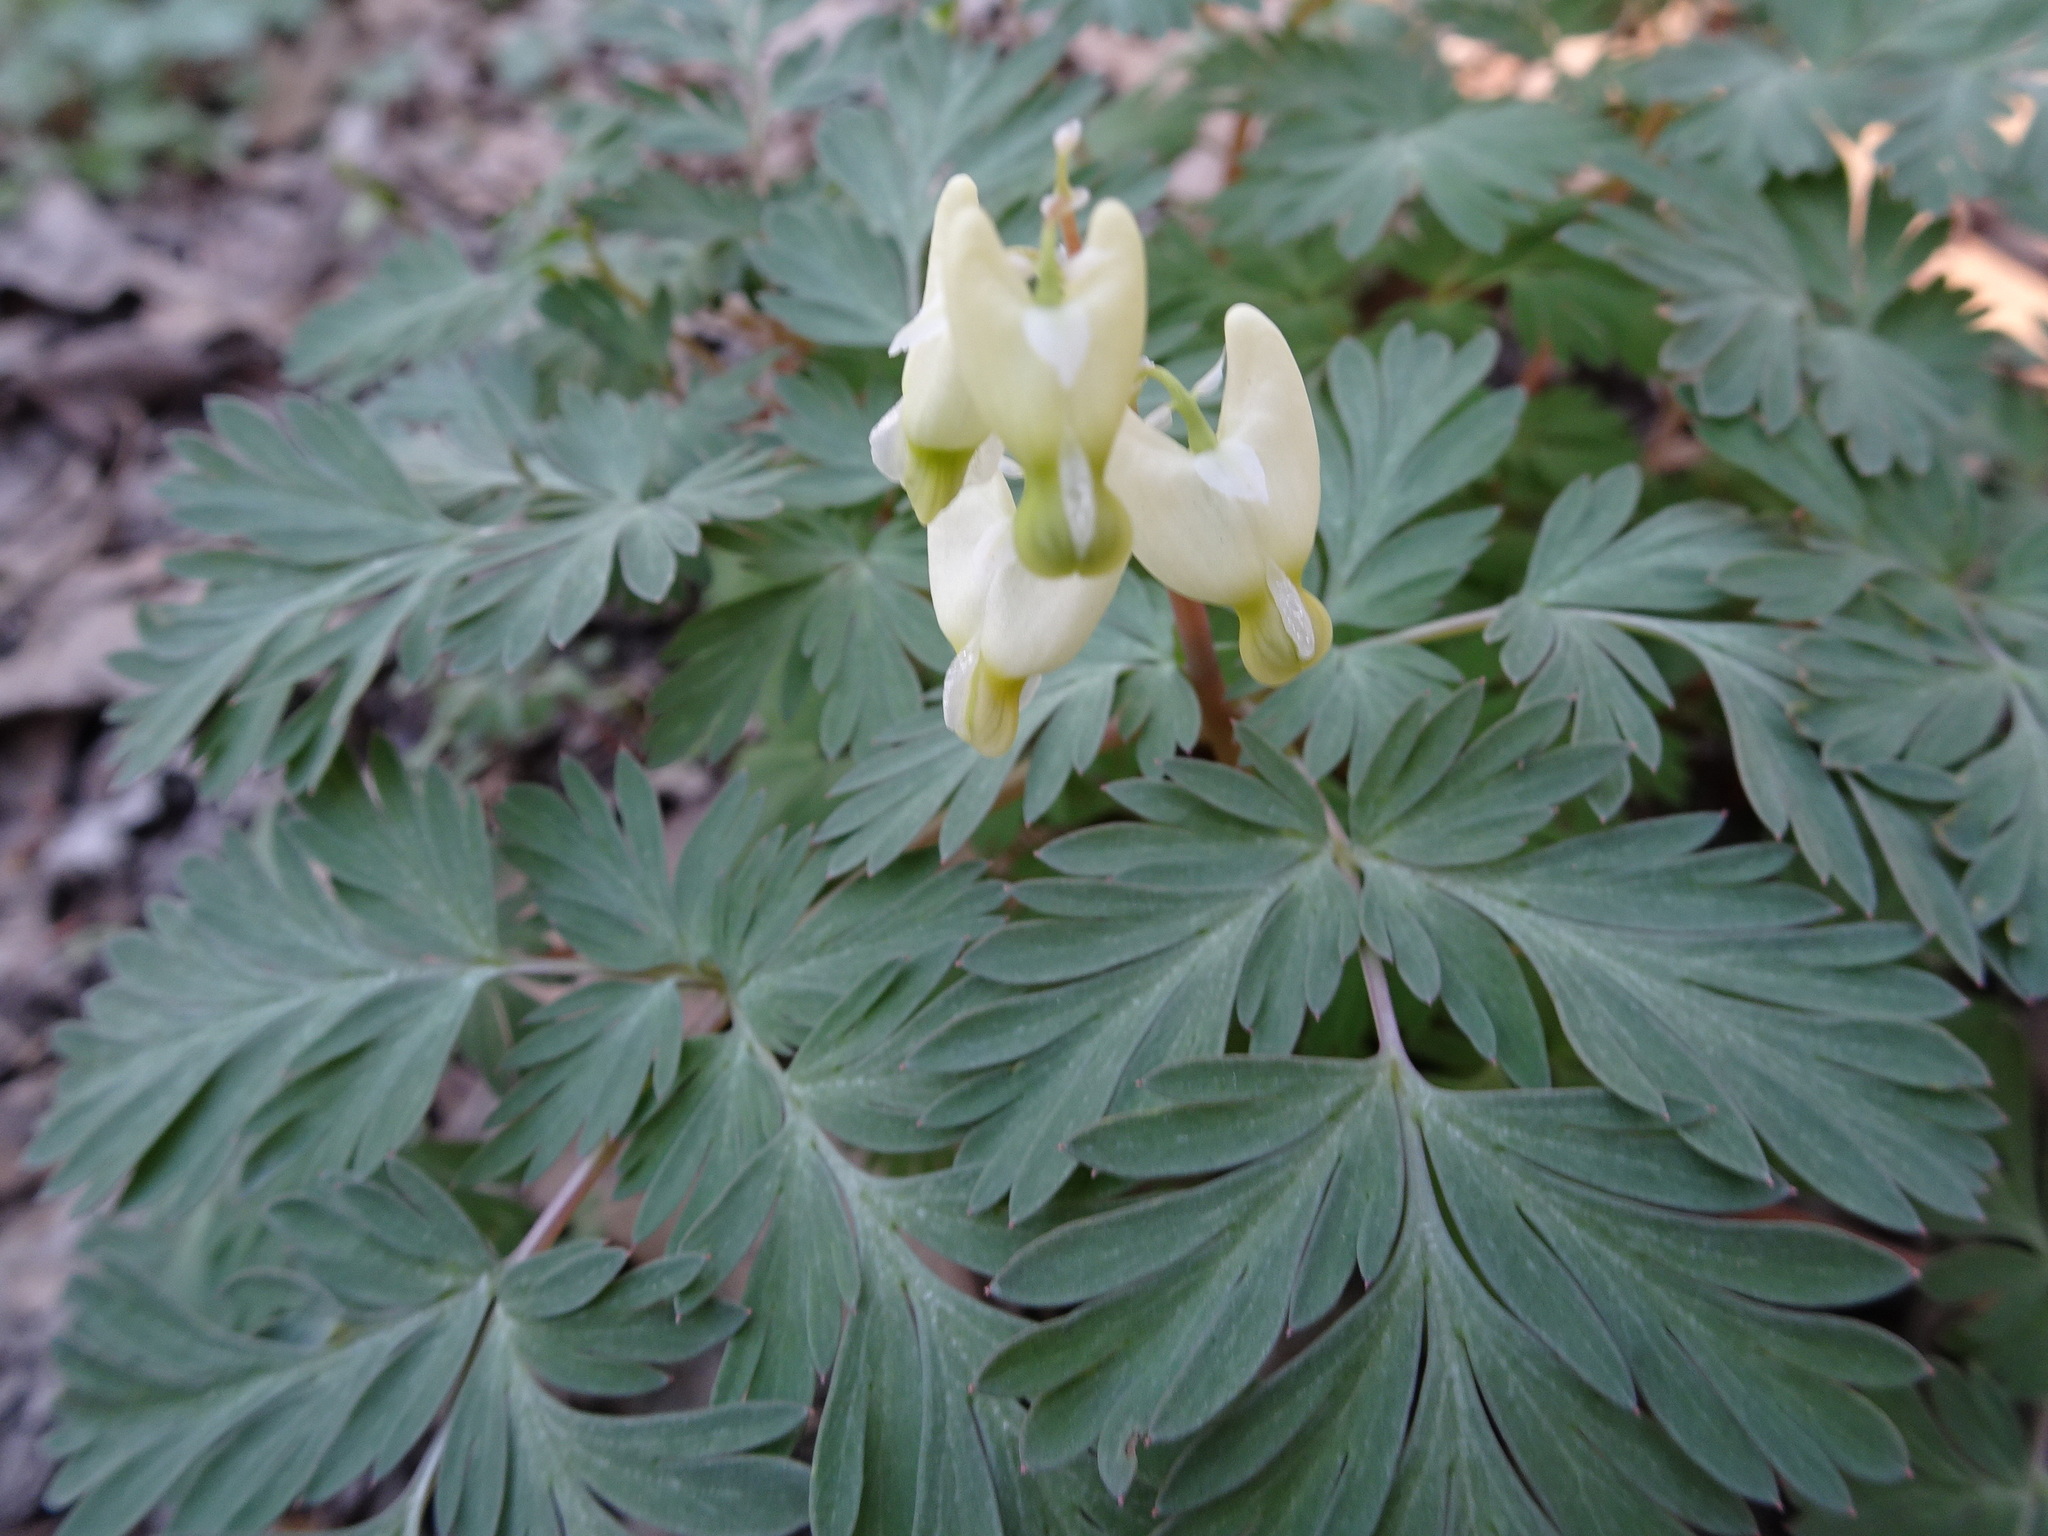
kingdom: Plantae
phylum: Tracheophyta
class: Magnoliopsida
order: Ranunculales
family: Papaveraceae
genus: Dicentra
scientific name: Dicentra cucullaria
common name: Dutchman's breeches
